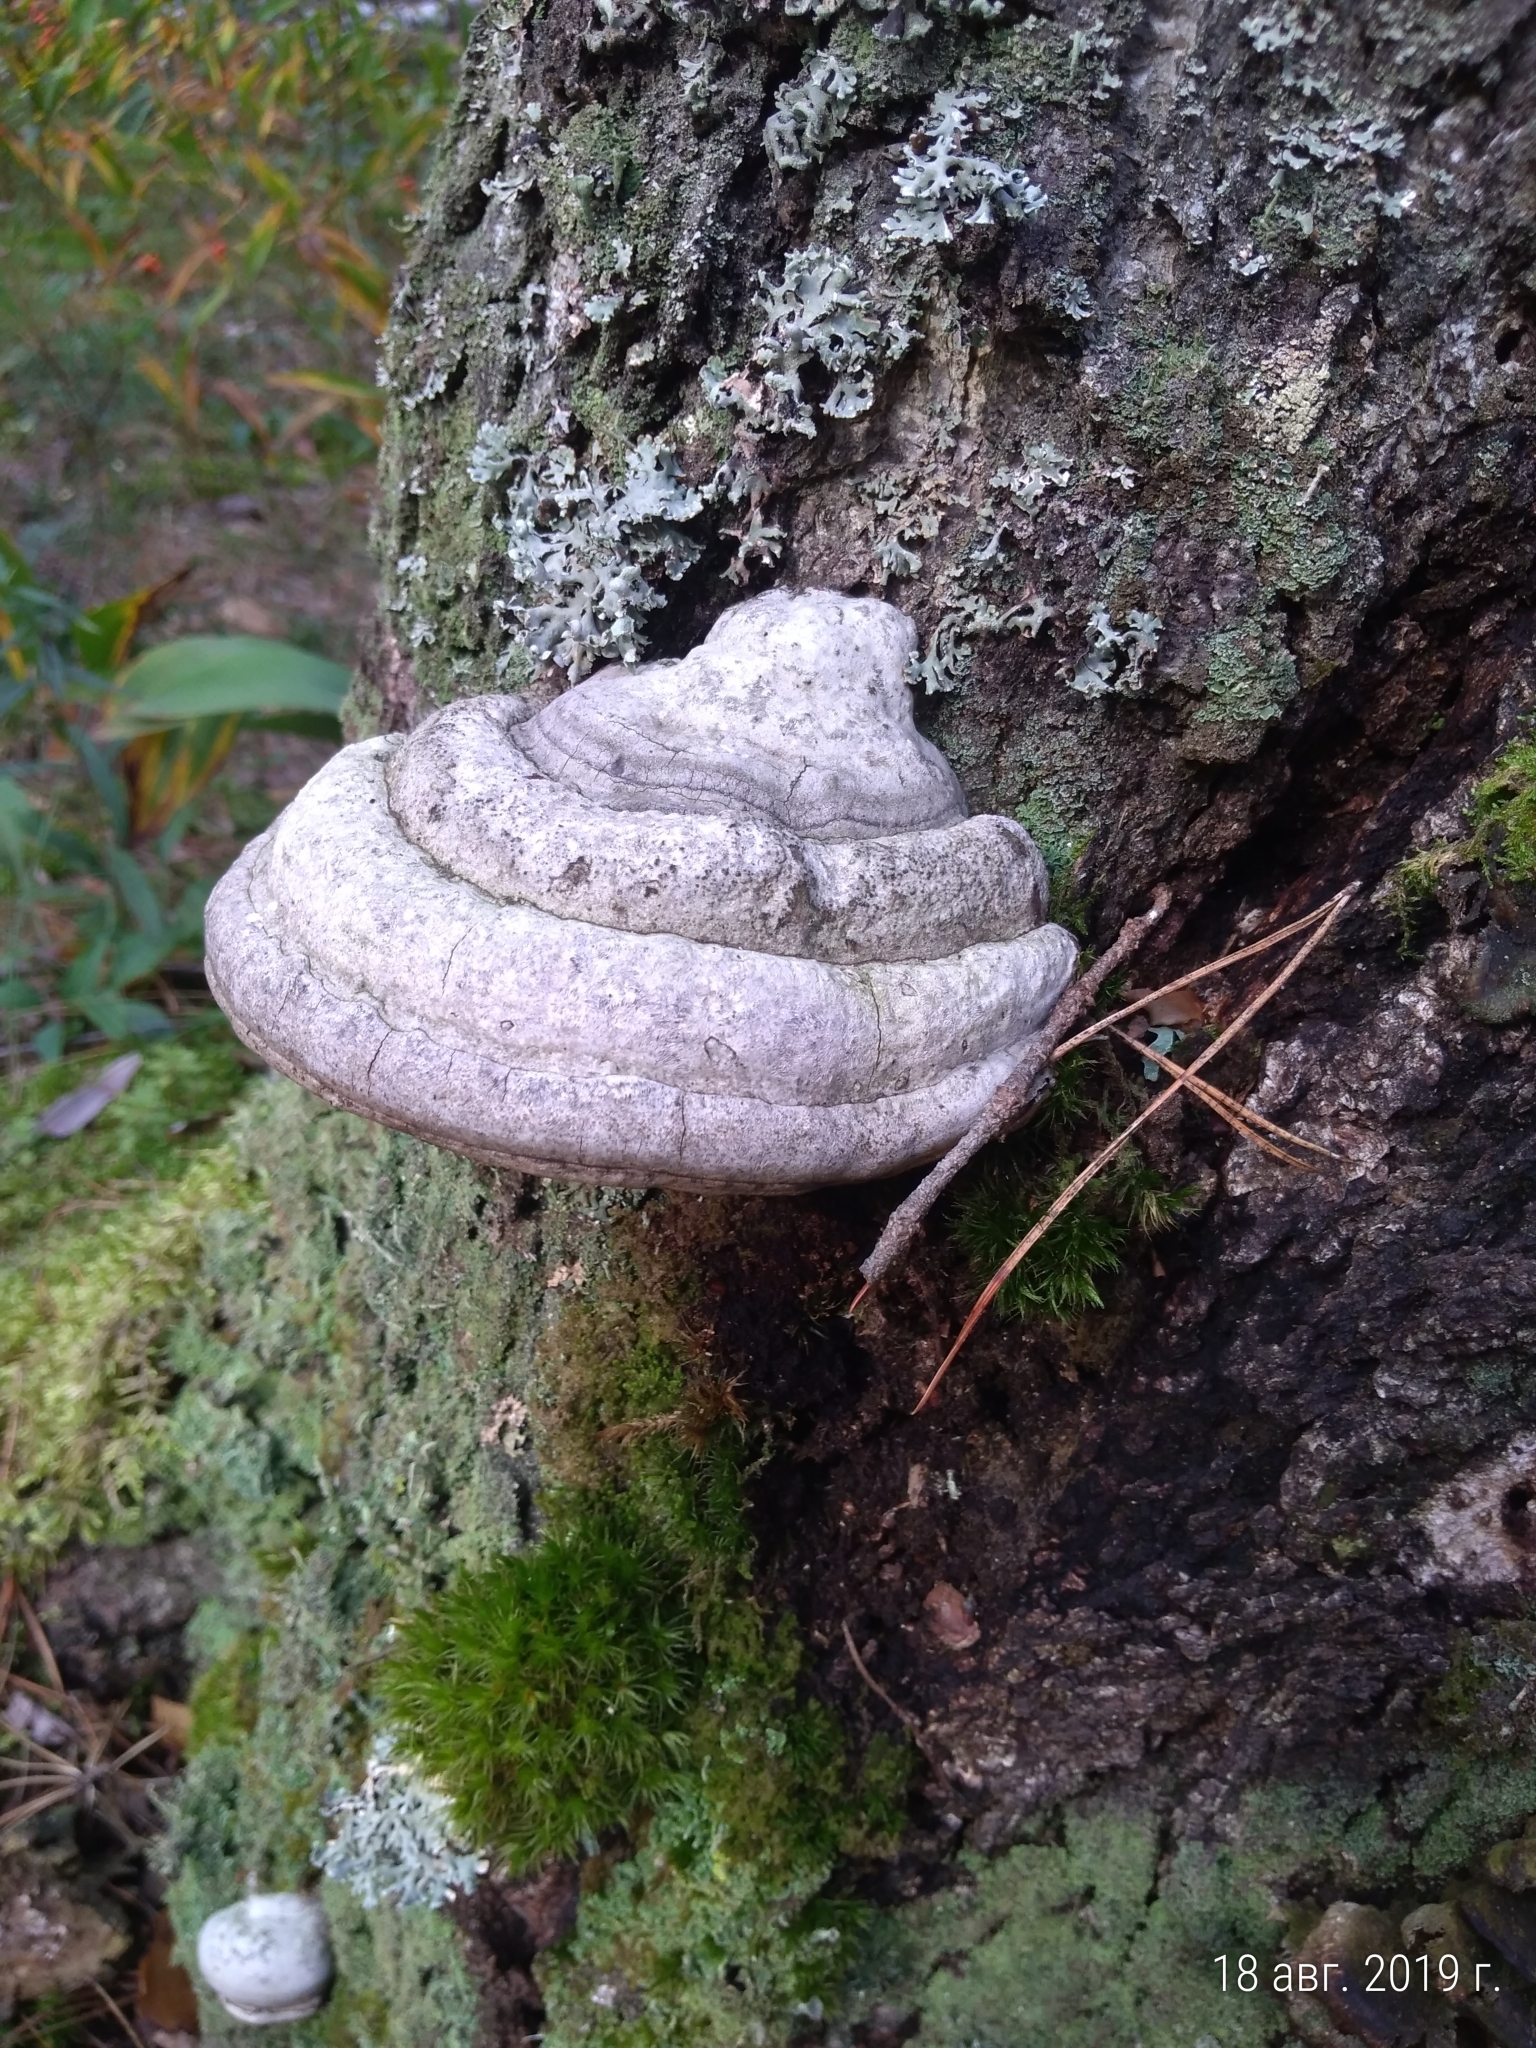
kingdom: Fungi
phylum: Basidiomycota
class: Agaricomycetes
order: Polyporales
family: Polyporaceae
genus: Fomes
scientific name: Fomes fomentarius
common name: Hoof fungus
